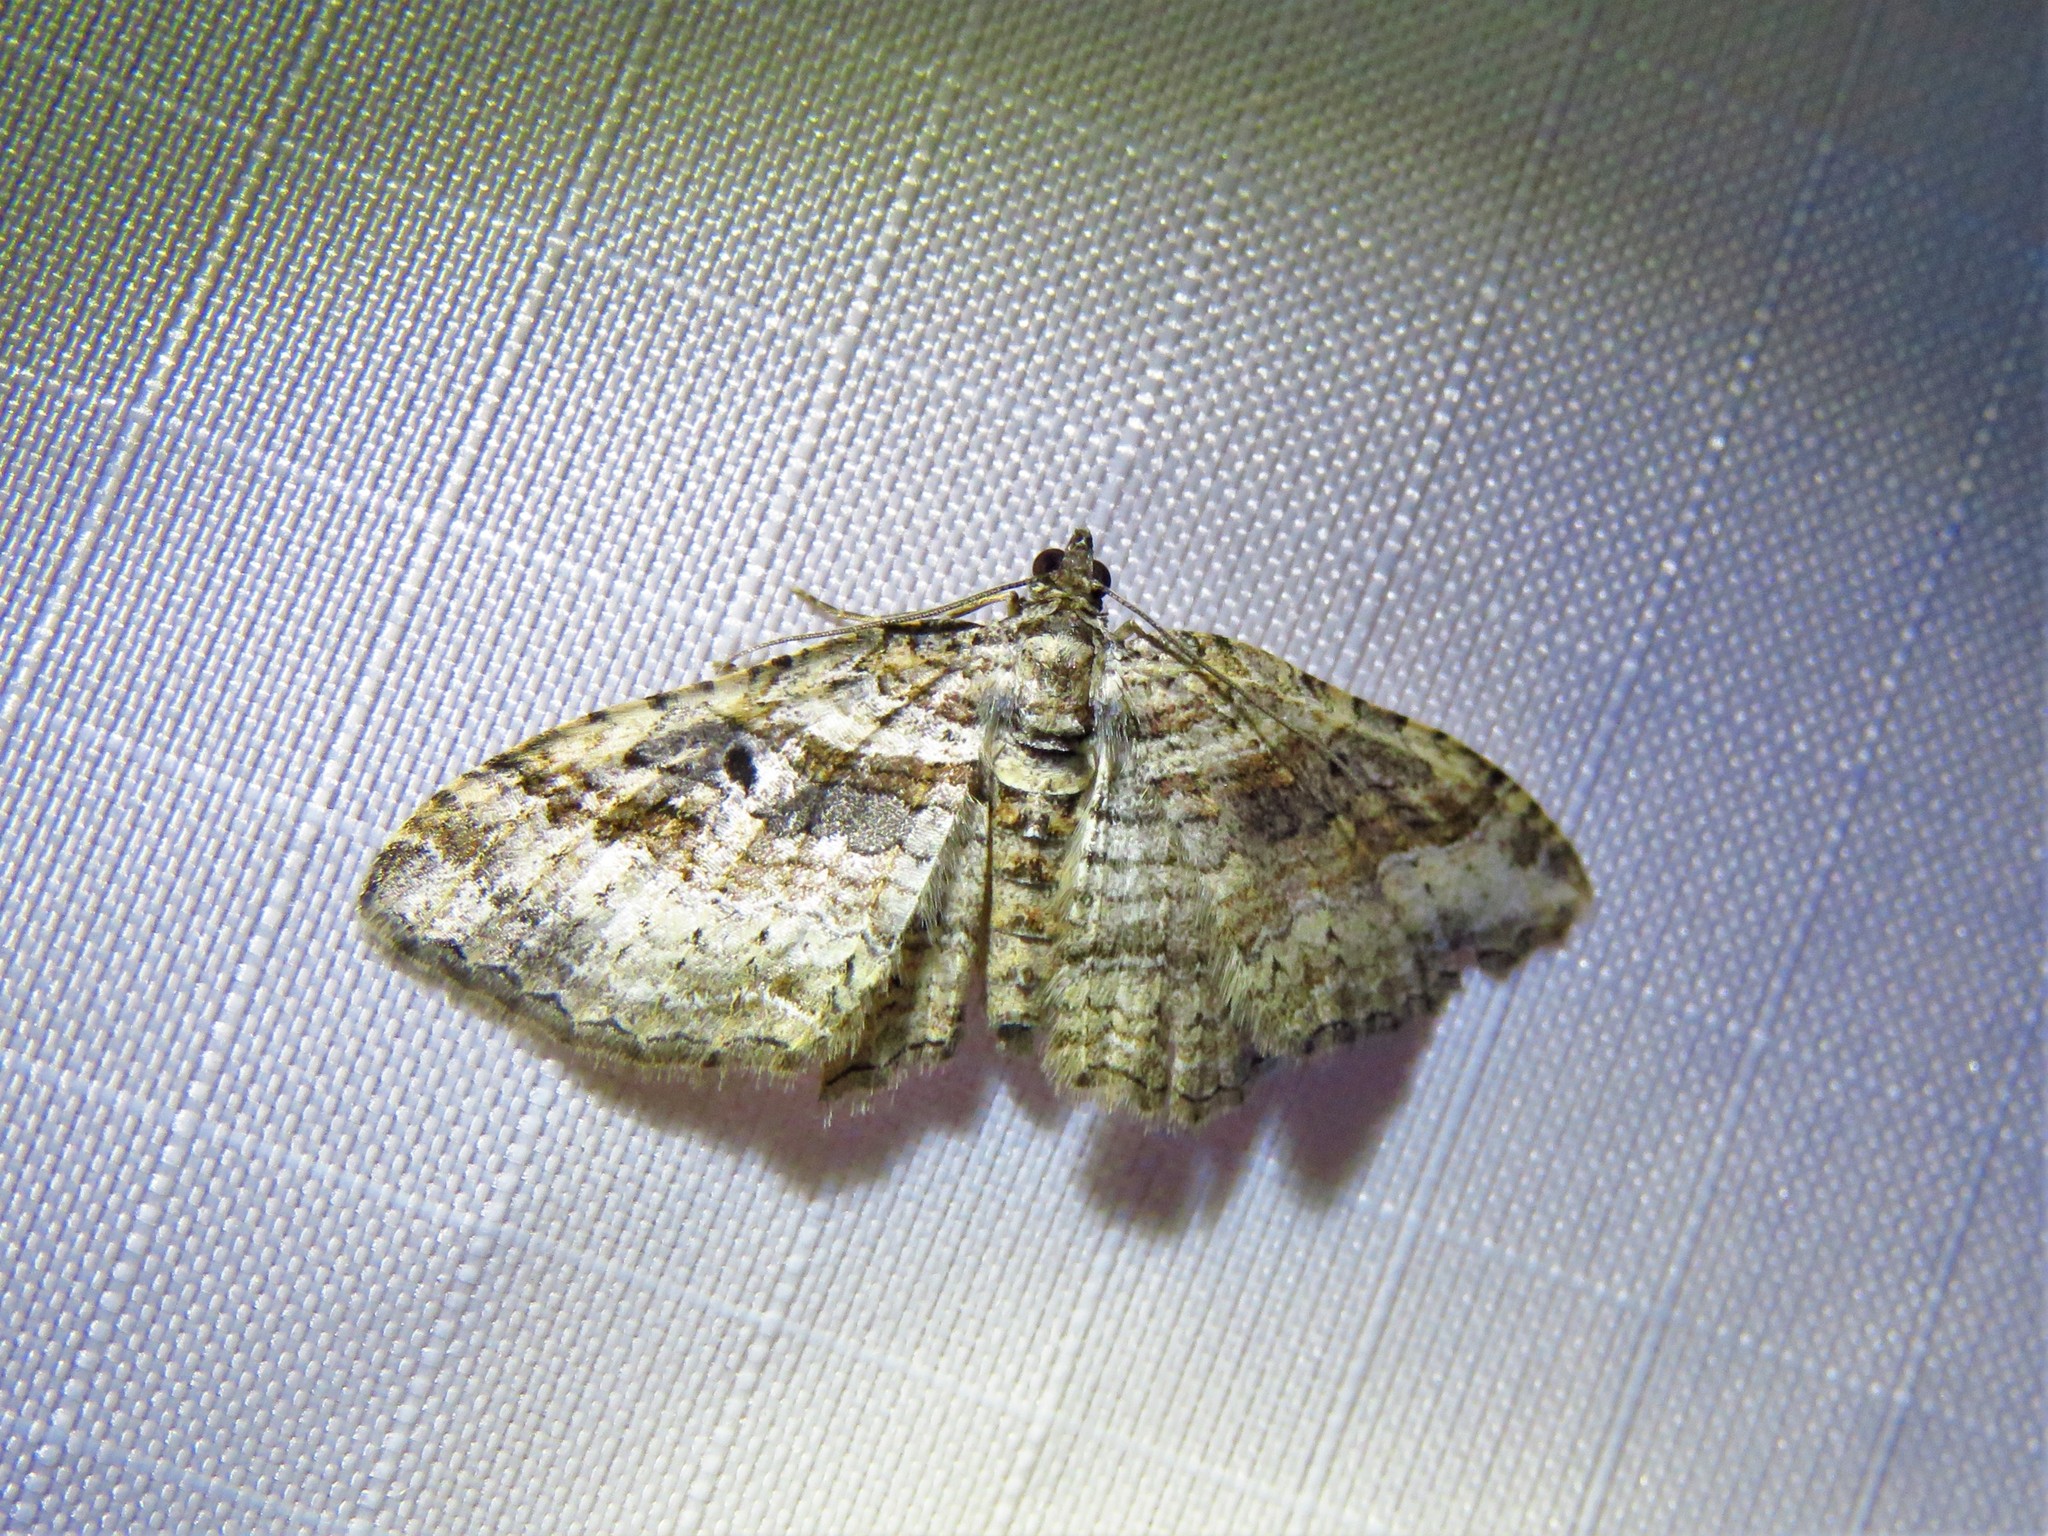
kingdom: Animalia
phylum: Arthropoda
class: Insecta
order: Lepidoptera
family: Geometridae
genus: Costaconvexa
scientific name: Costaconvexa centrostrigaria
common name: Bent-line carpet
